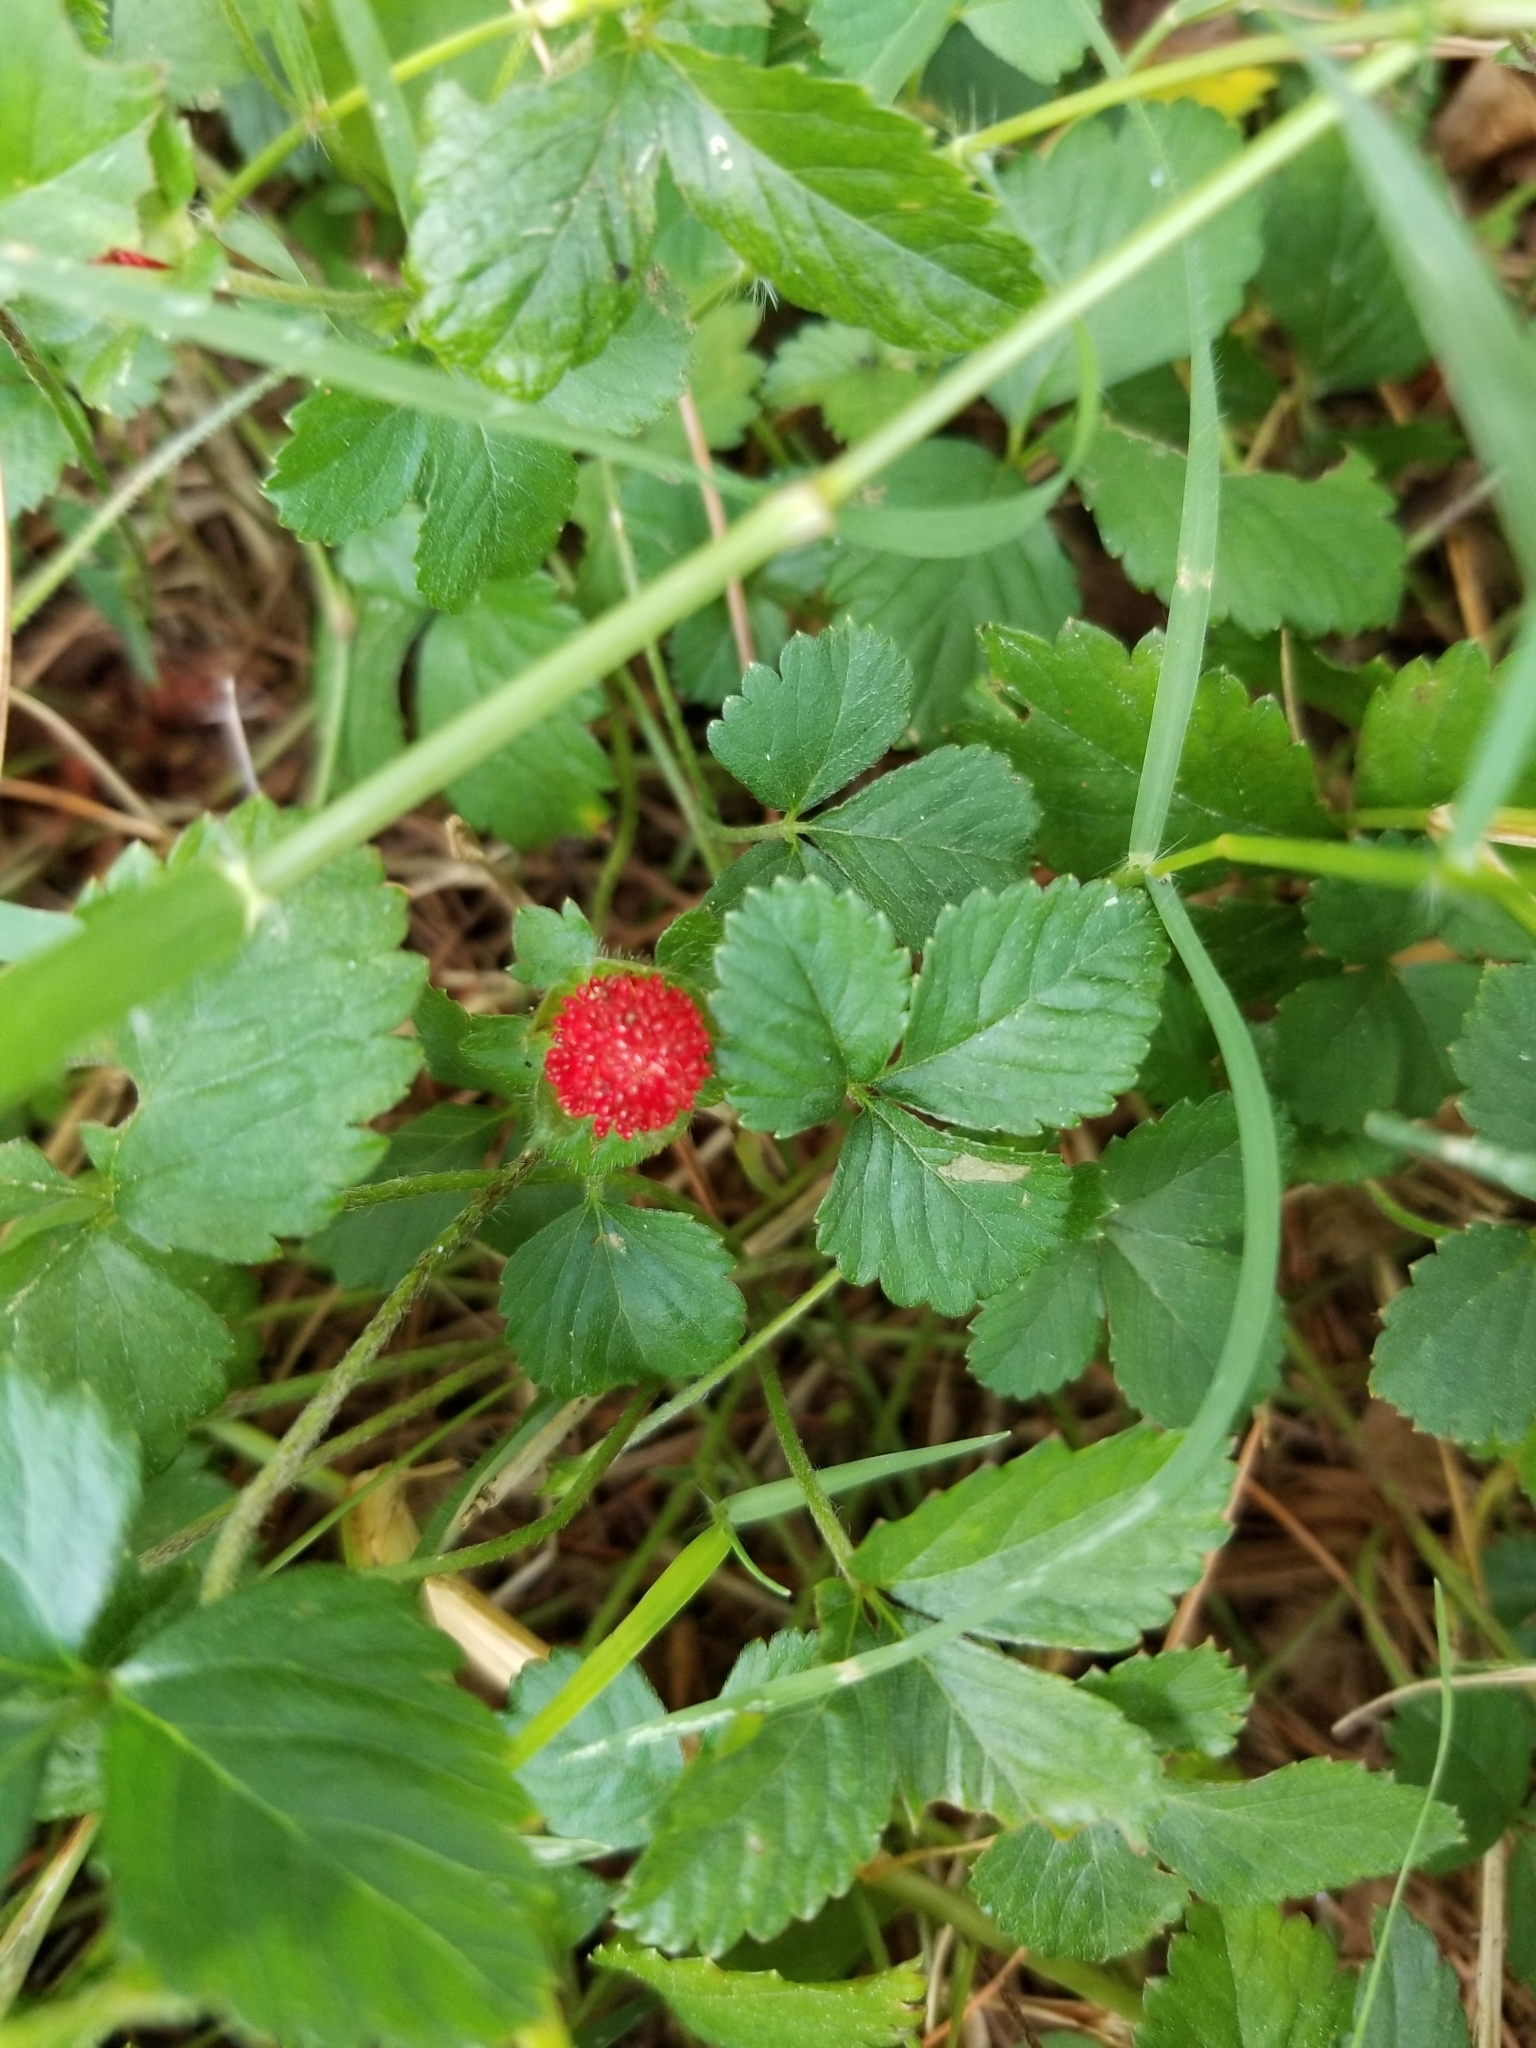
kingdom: Plantae
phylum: Tracheophyta
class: Magnoliopsida
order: Rosales
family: Rosaceae
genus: Potentilla
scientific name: Potentilla indica
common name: Yellow-flowered strawberry
